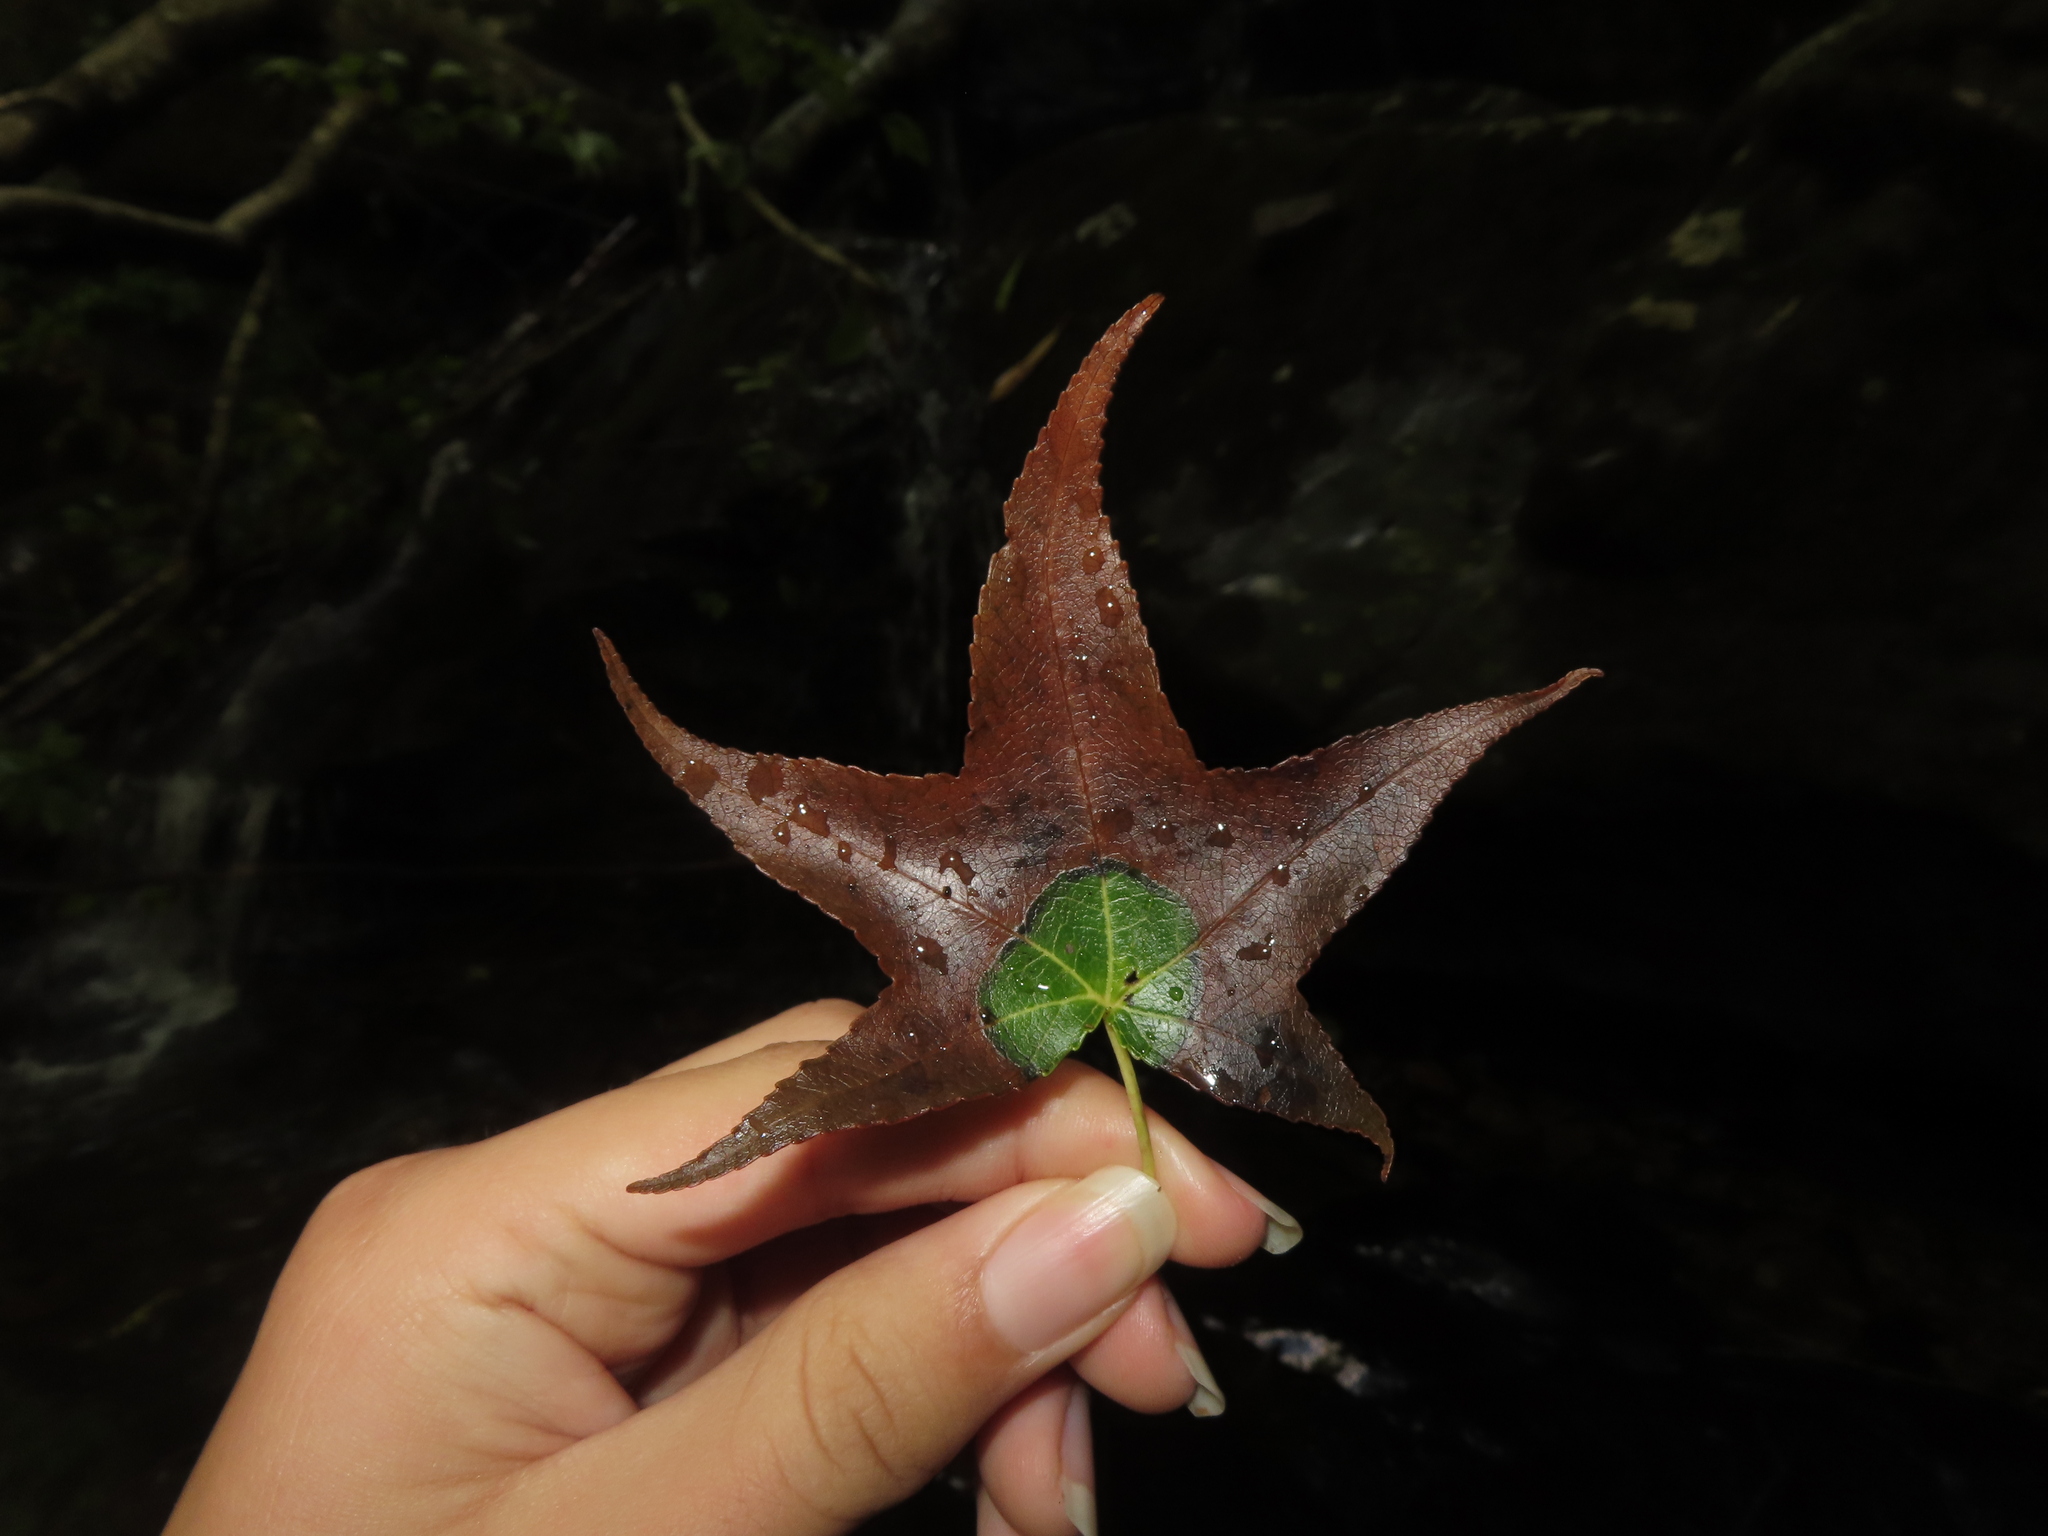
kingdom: Plantae
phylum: Tracheophyta
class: Magnoliopsida
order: Saxifragales
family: Altingiaceae
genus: Liquidambar
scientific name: Liquidambar styraciflua
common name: Sweet gum
